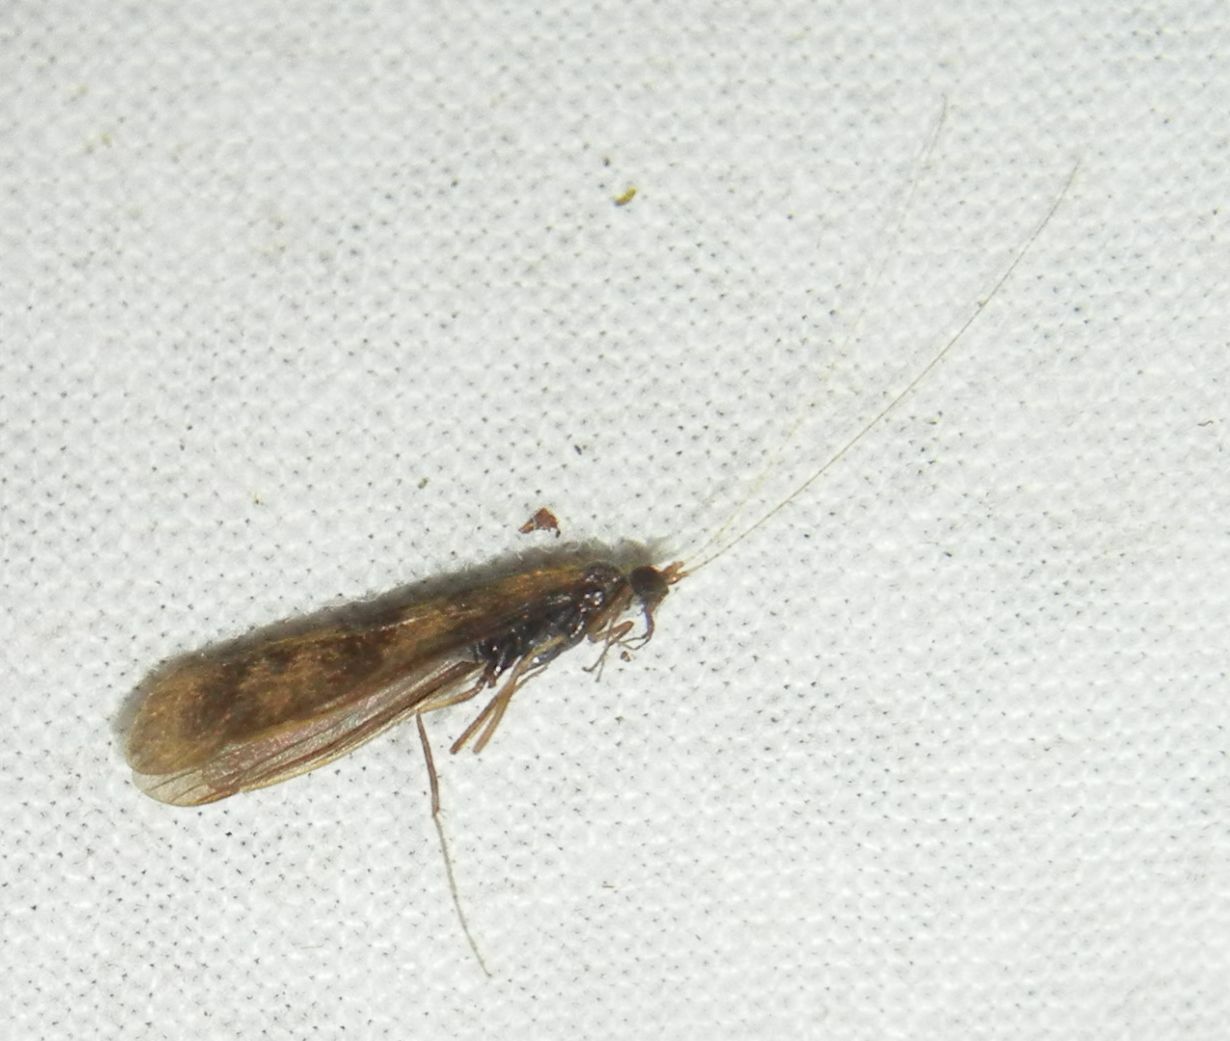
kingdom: Animalia
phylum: Arthropoda
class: Insecta
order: Trichoptera
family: Leptoceridae
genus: Mystacides
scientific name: Mystacides longicornis
